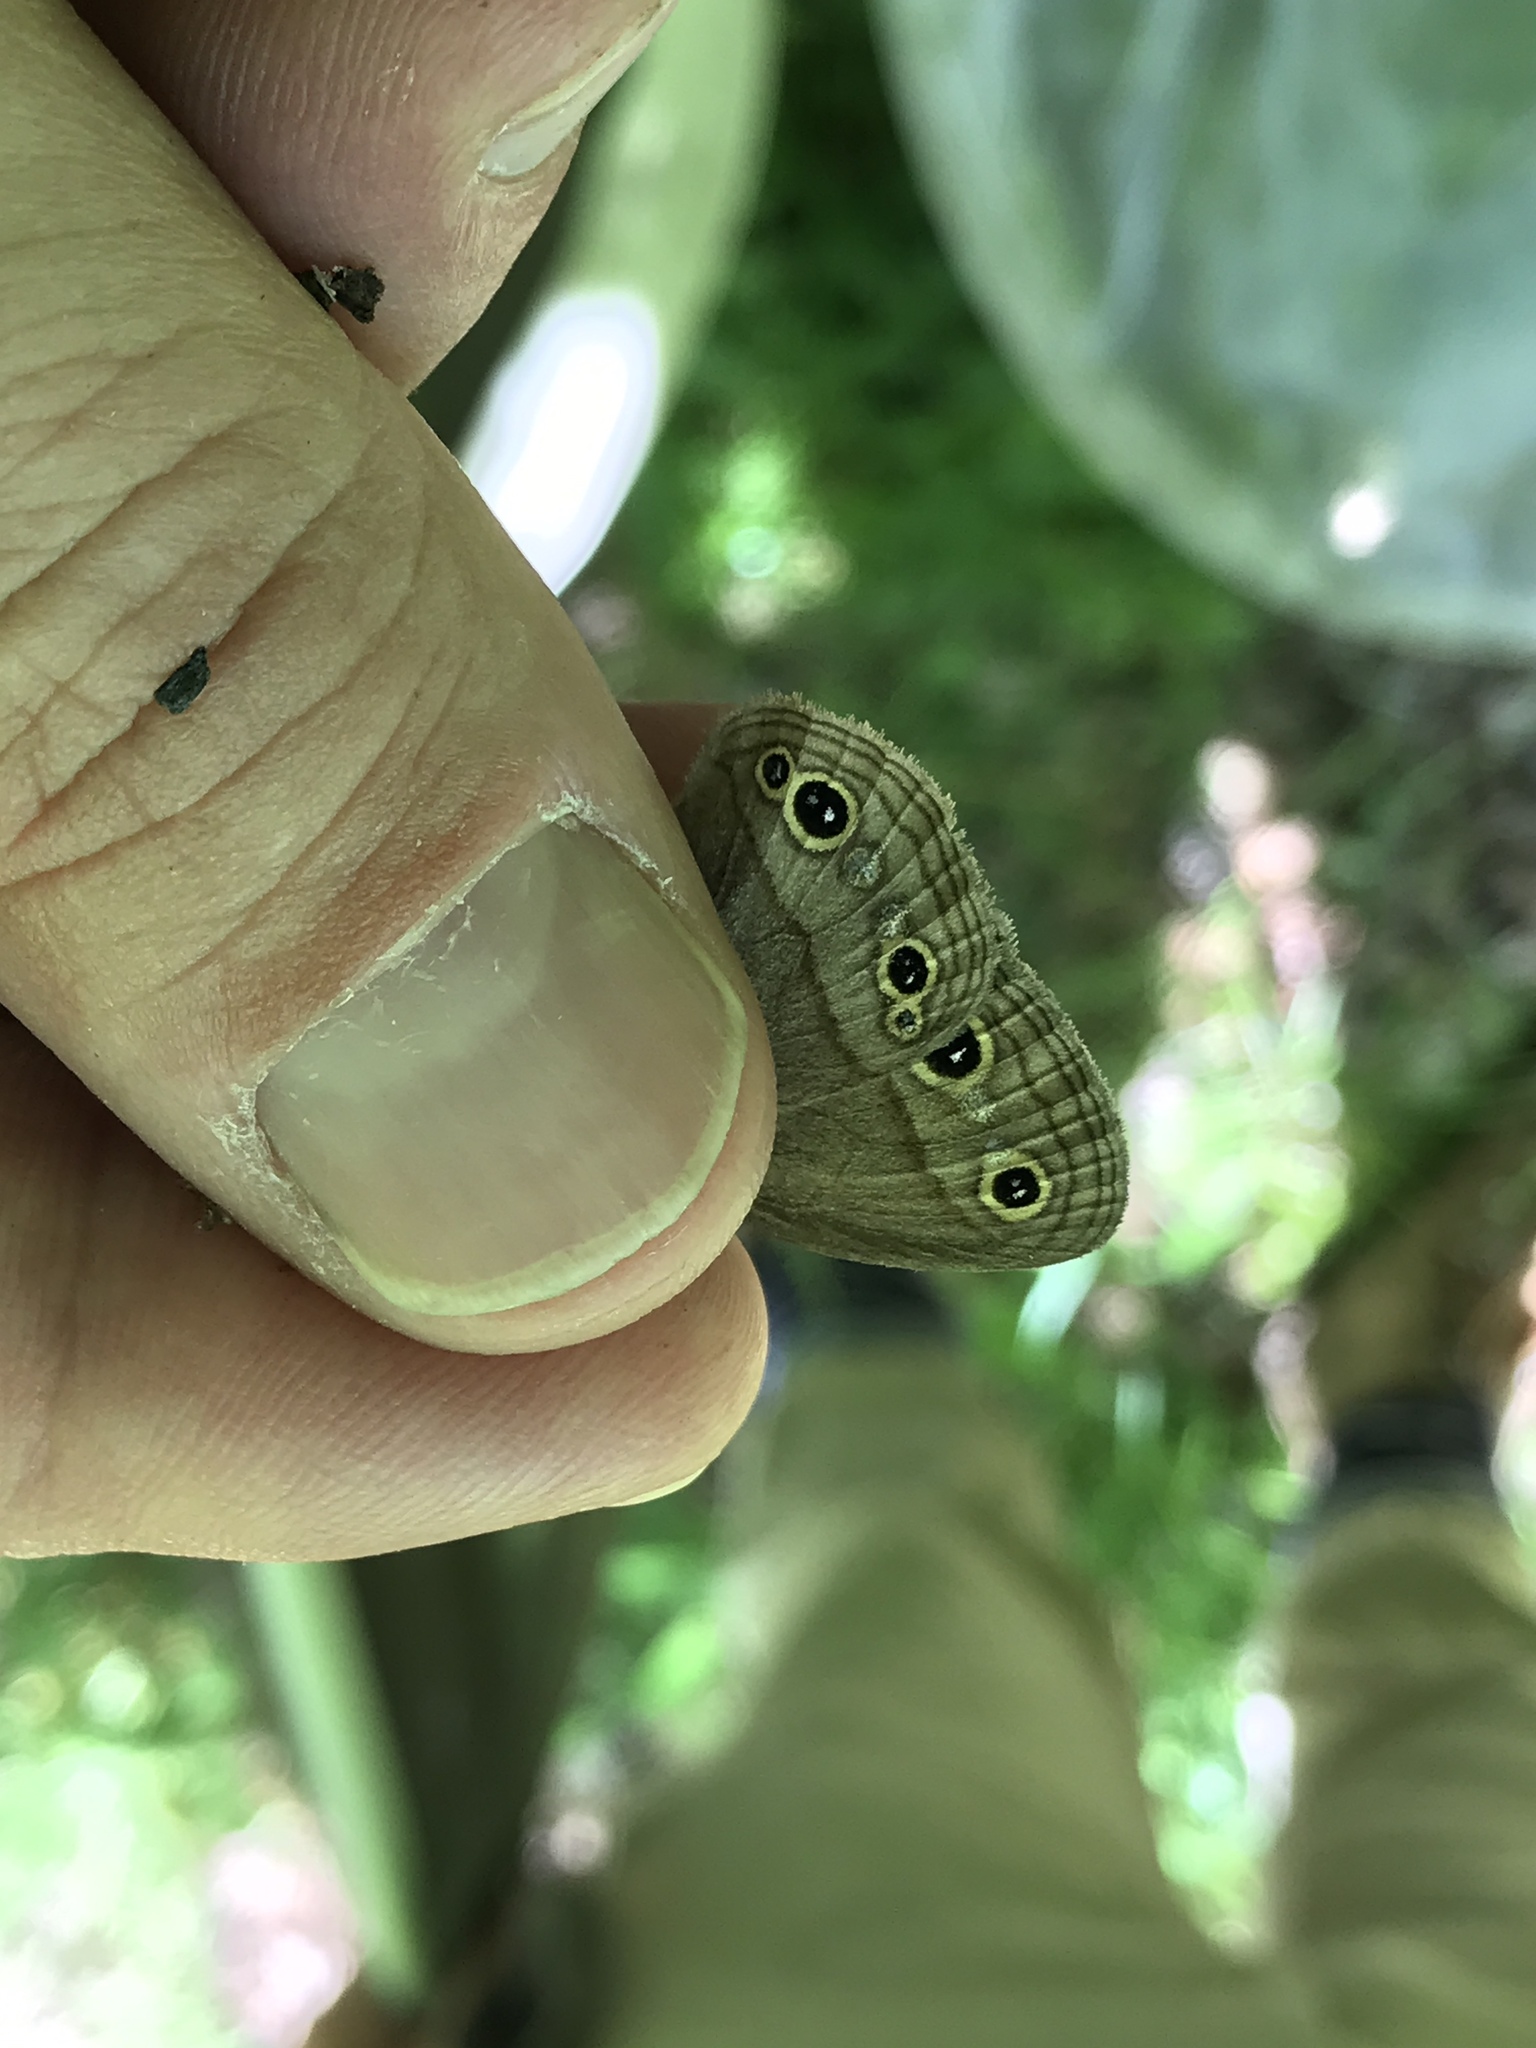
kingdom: Animalia
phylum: Arthropoda
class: Insecta
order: Lepidoptera
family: Nymphalidae
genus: Euptychia
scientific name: Euptychia cymela
